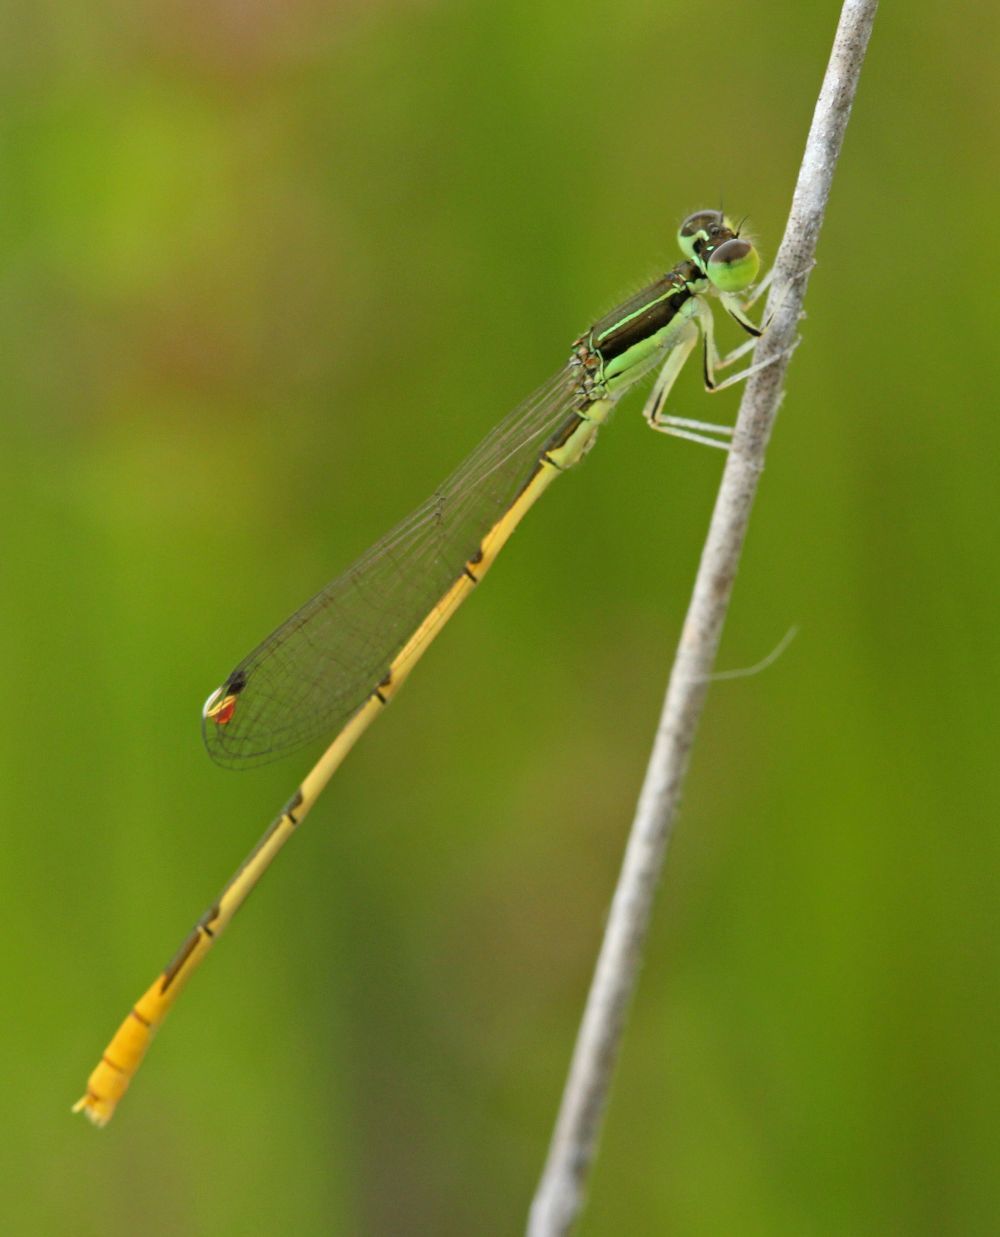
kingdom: Animalia
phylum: Arthropoda
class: Insecta
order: Odonata
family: Coenagrionidae
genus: Ischnura
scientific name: Ischnura hastata
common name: Citrine forktail
